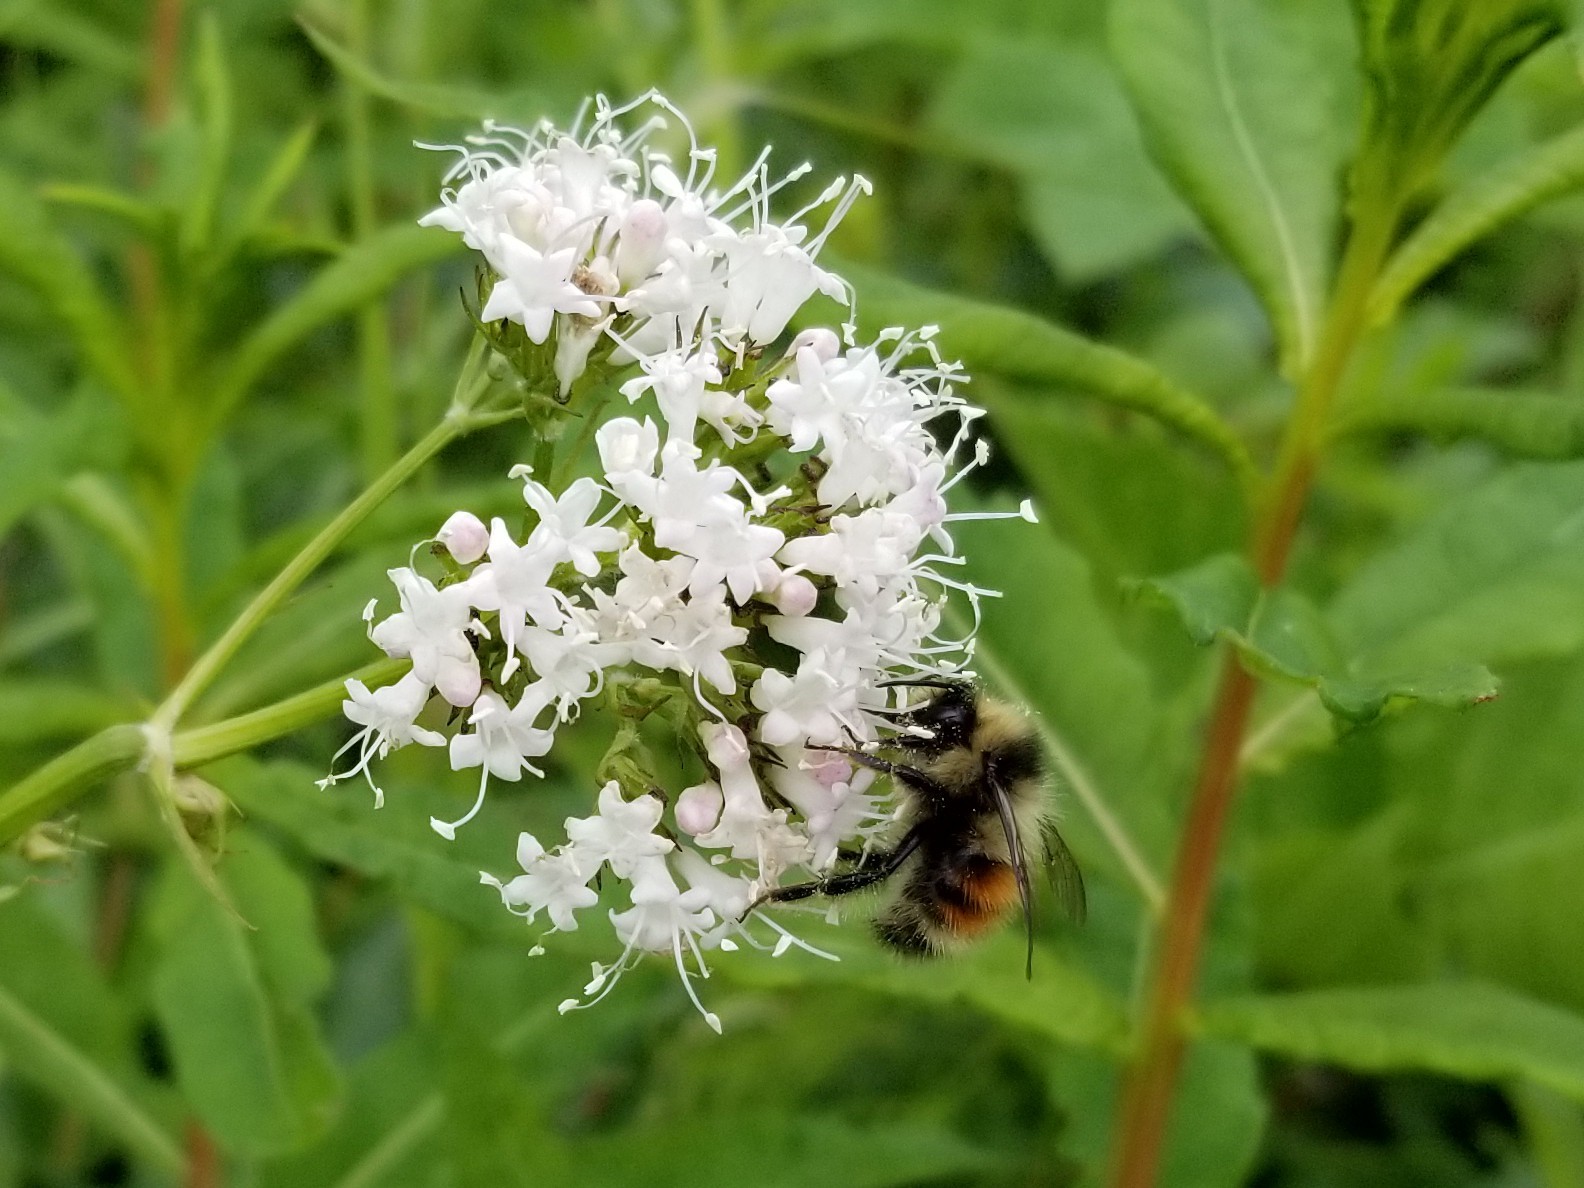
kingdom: Animalia
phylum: Arthropoda
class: Insecta
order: Hymenoptera
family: Apidae
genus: Bombus
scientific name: Bombus sylvicola
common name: Forest bumble bee
